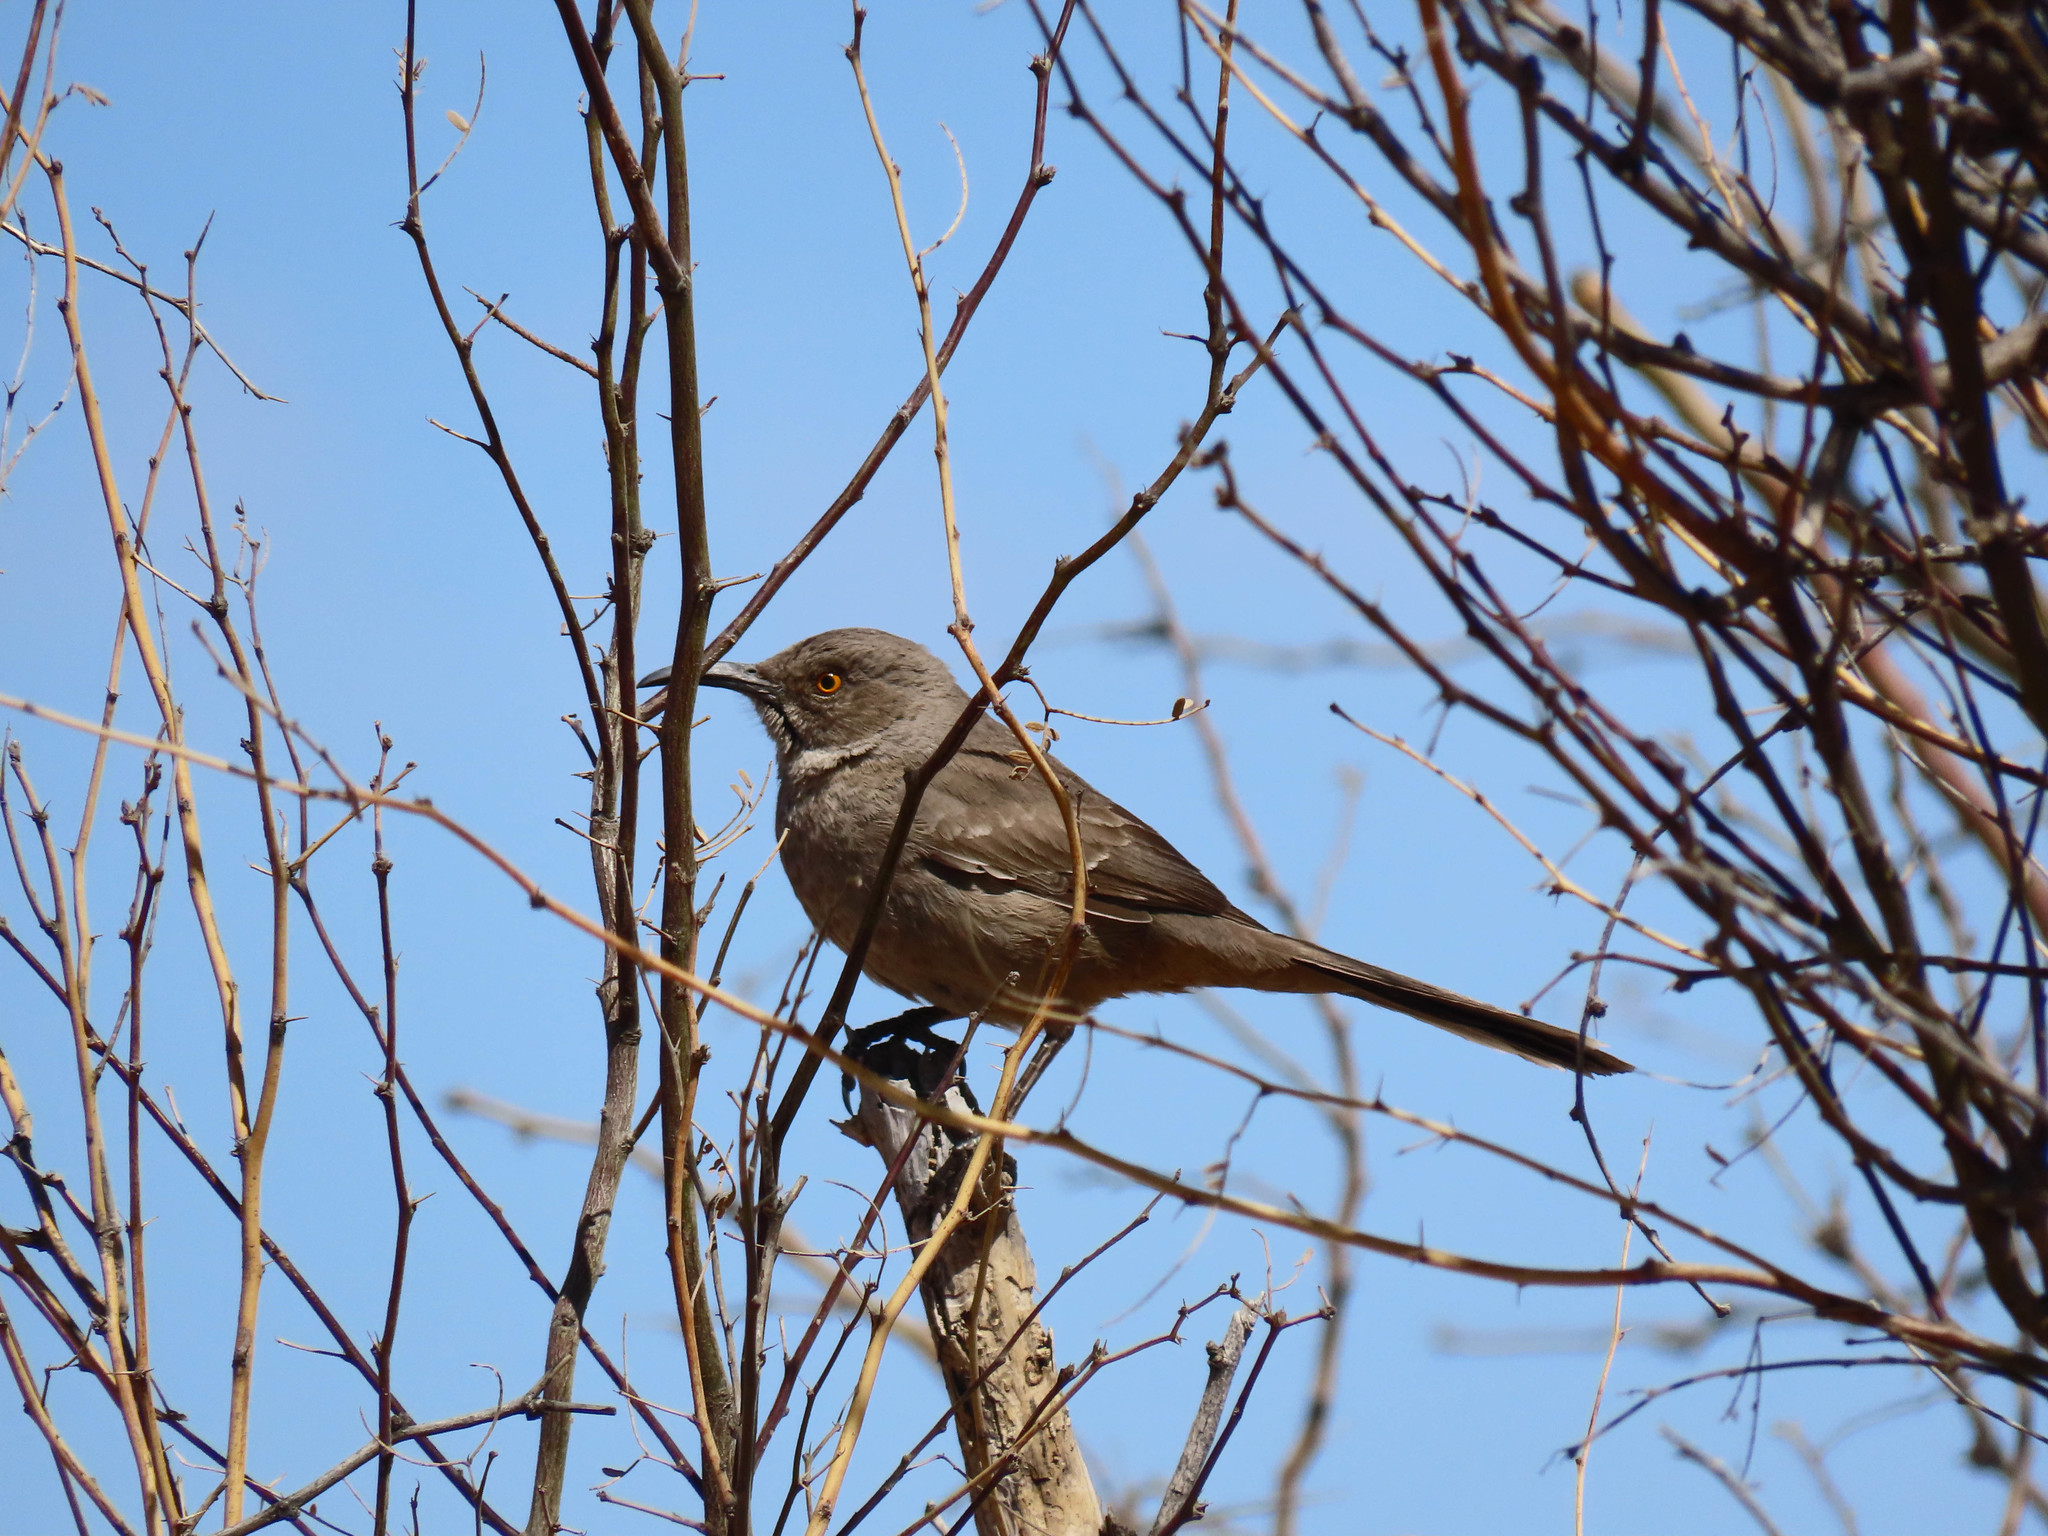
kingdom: Animalia
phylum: Chordata
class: Aves
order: Passeriformes
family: Mimidae
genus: Toxostoma
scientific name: Toxostoma curvirostre
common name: Curve-billed thrasher
